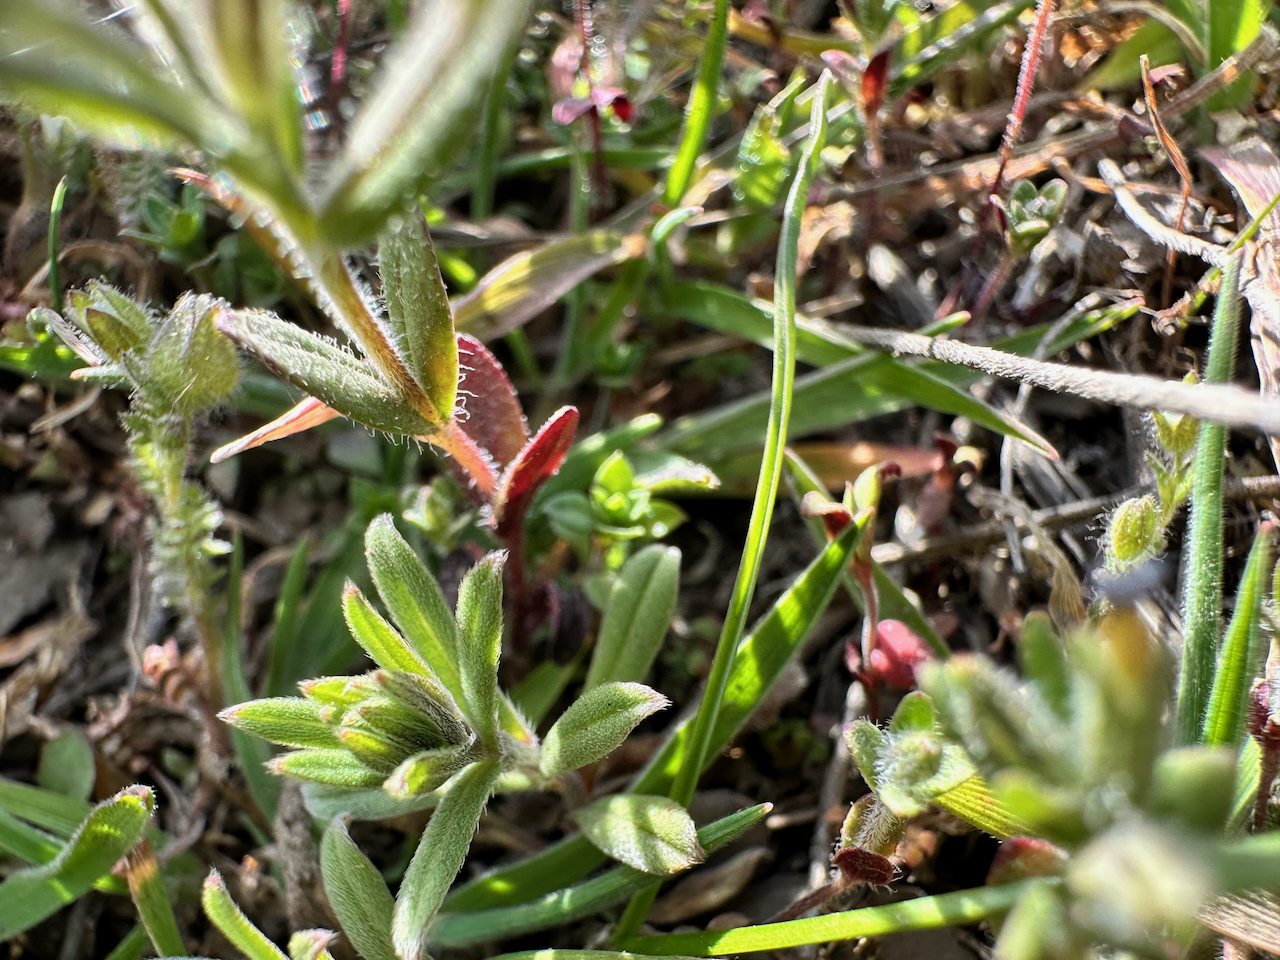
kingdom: Plantae
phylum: Tracheophyta
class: Magnoliopsida
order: Ericales
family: Polemoniaceae
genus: Phlox
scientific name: Phlox gracilis
